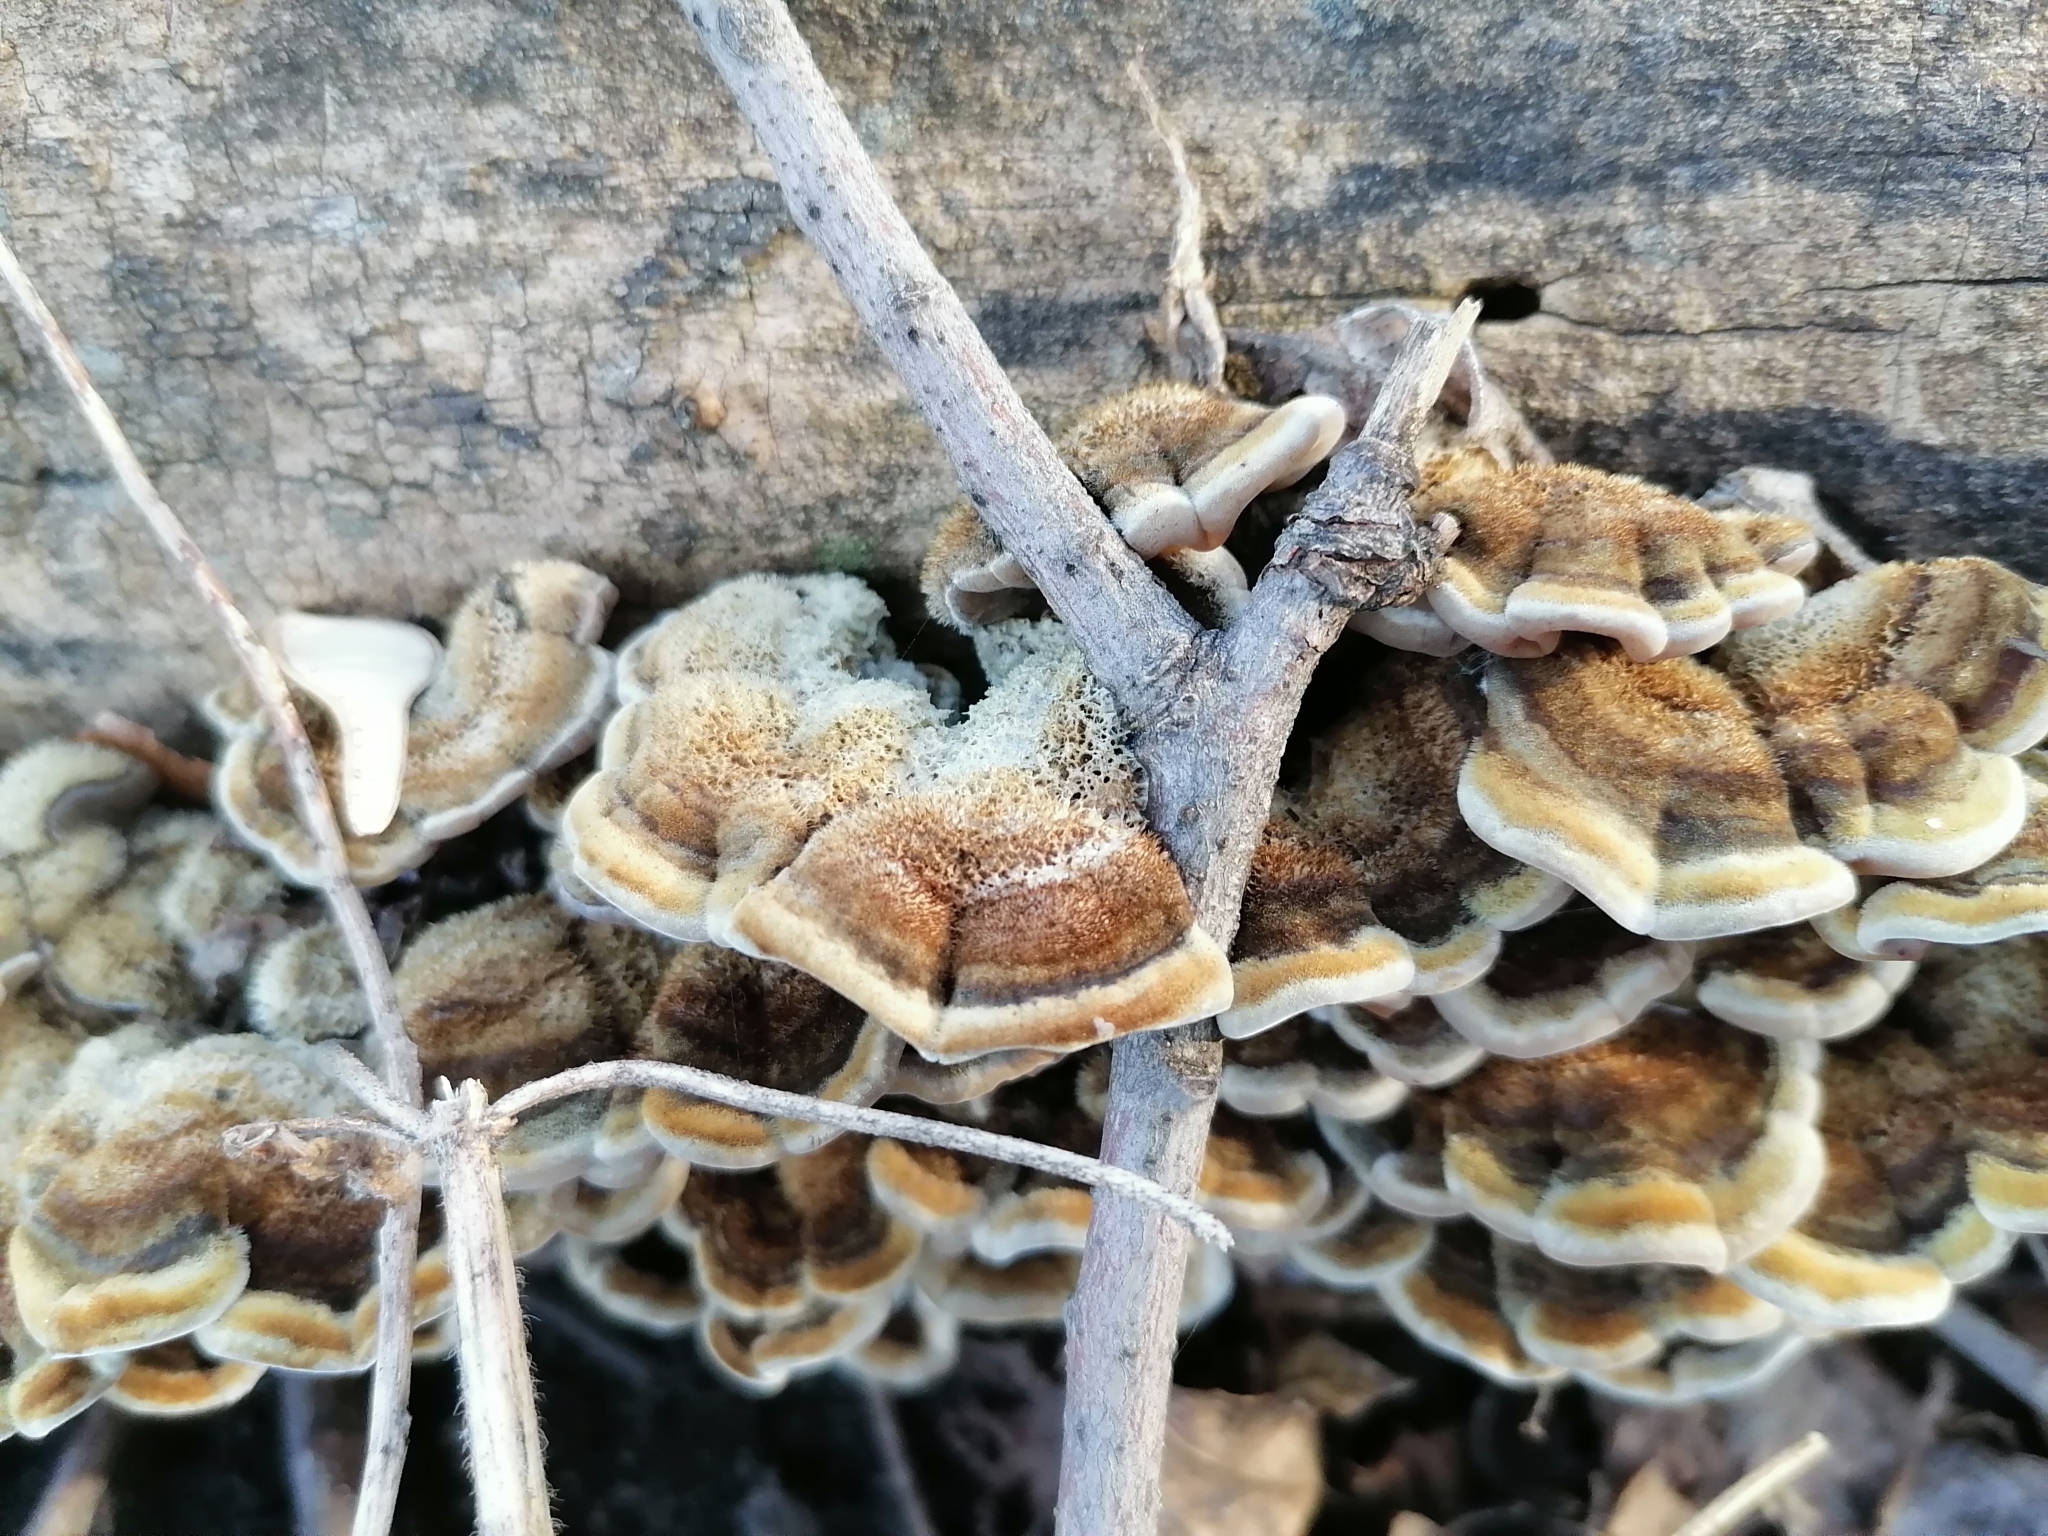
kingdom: Fungi
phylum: Basidiomycota
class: Agaricomycetes
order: Auriculariales
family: Auriculariaceae
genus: Auricularia
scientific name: Auricularia mesenterica
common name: Tripe fungus
